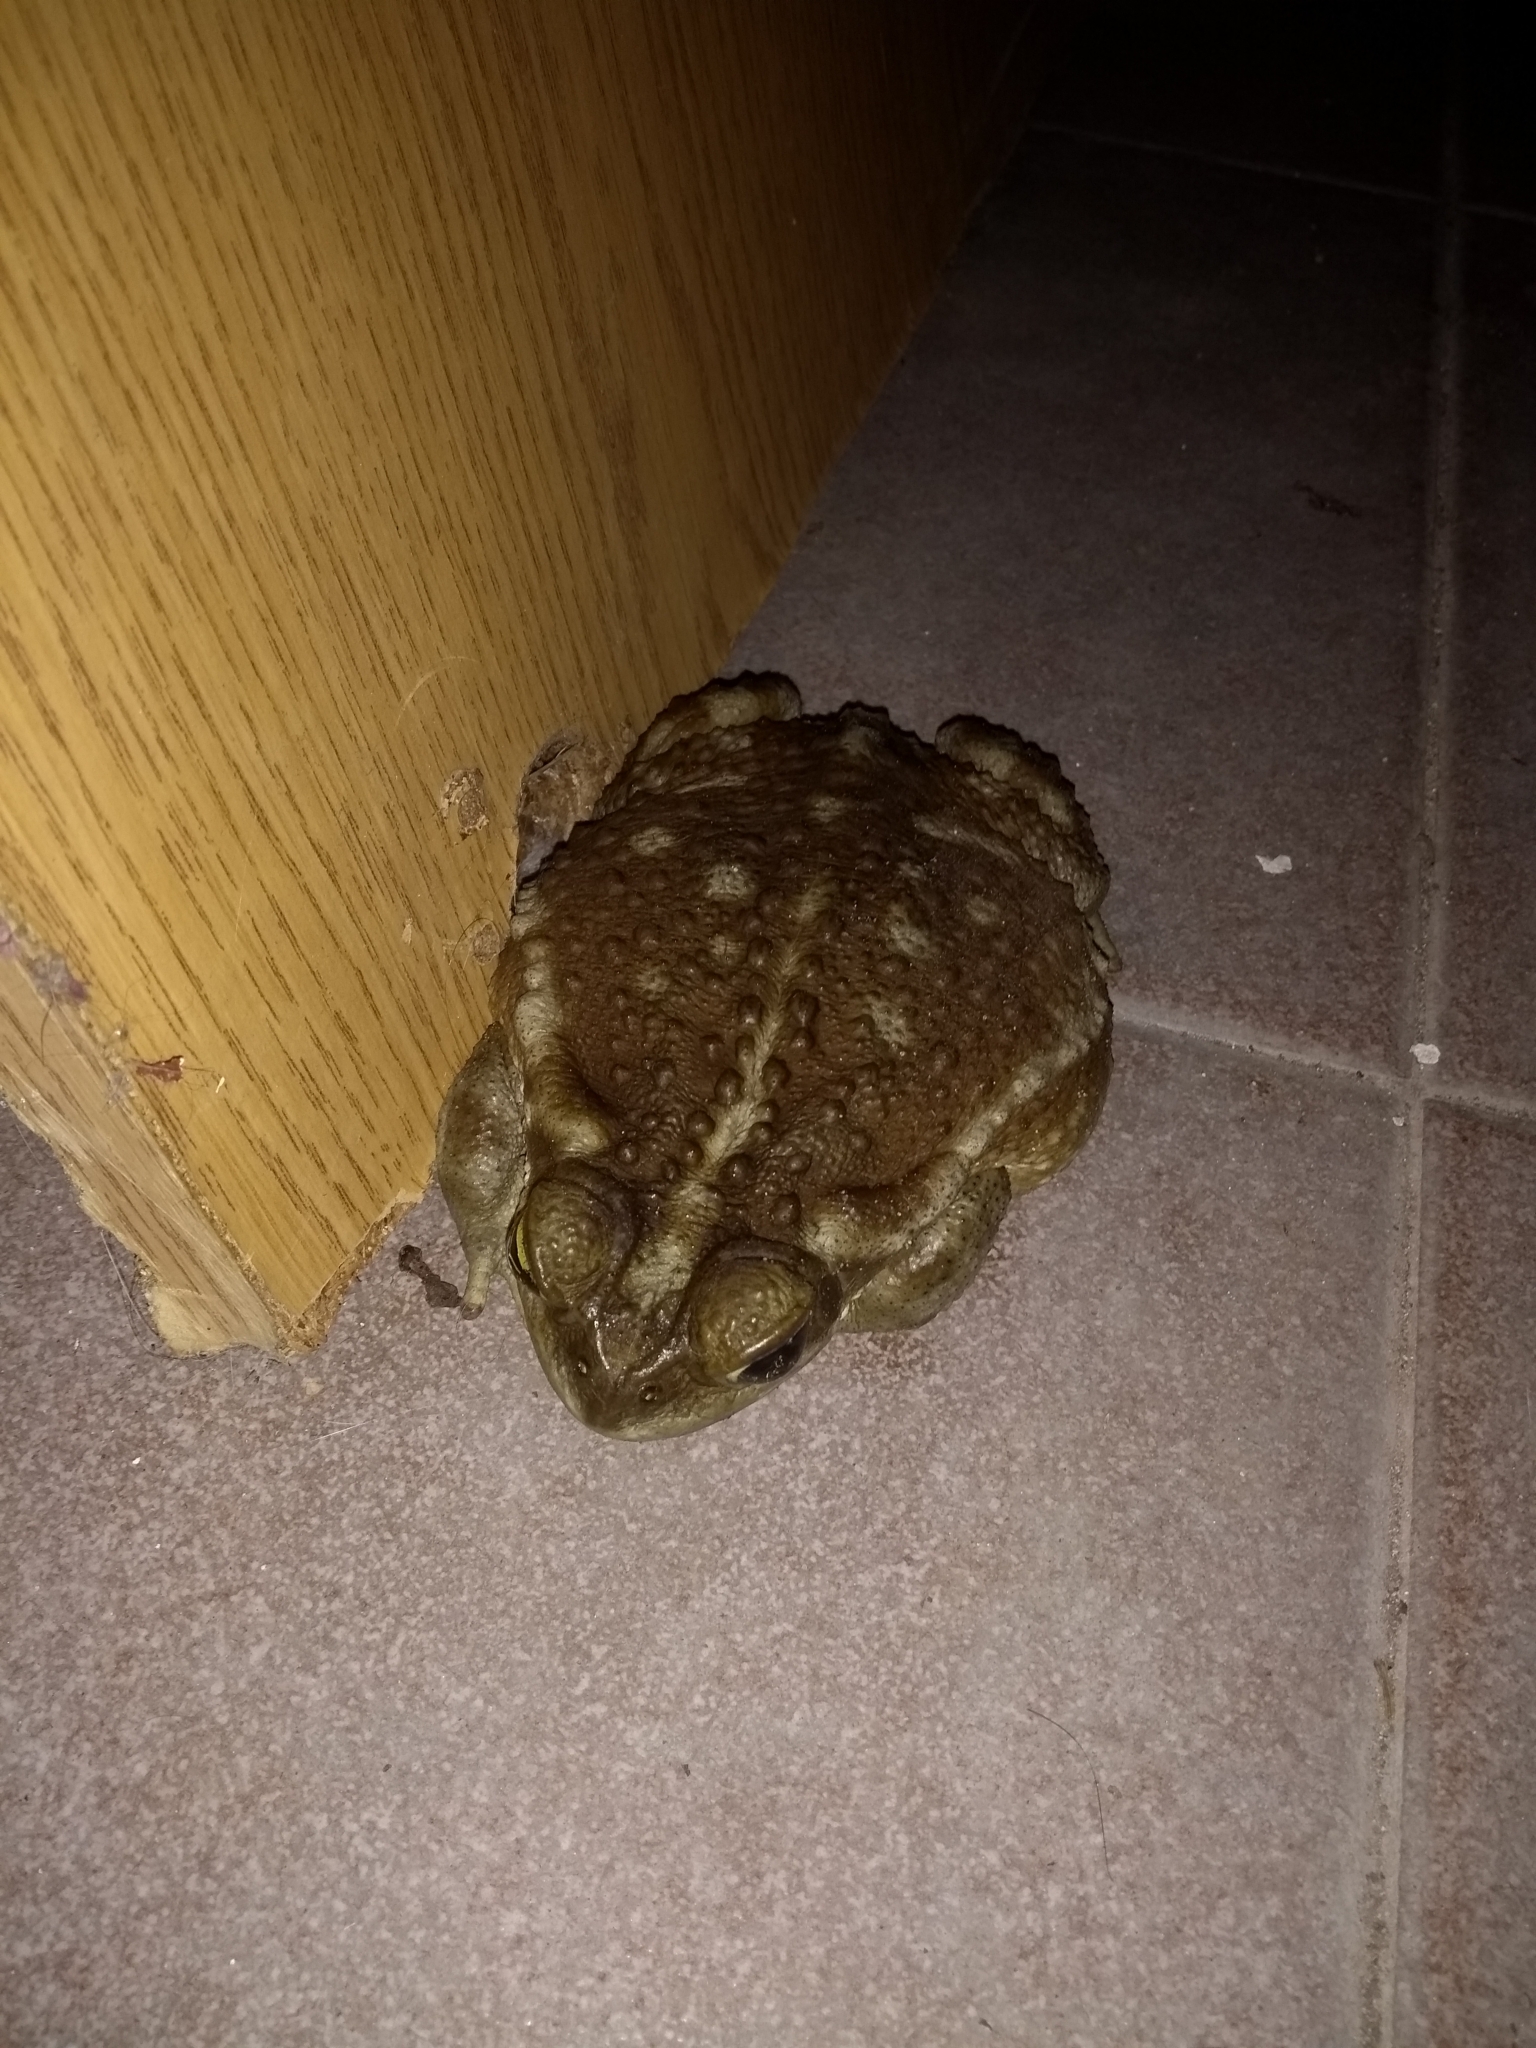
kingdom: Animalia
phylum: Chordata
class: Amphibia
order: Anura
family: Bufonidae
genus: Rhinella
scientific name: Rhinella arenarum
